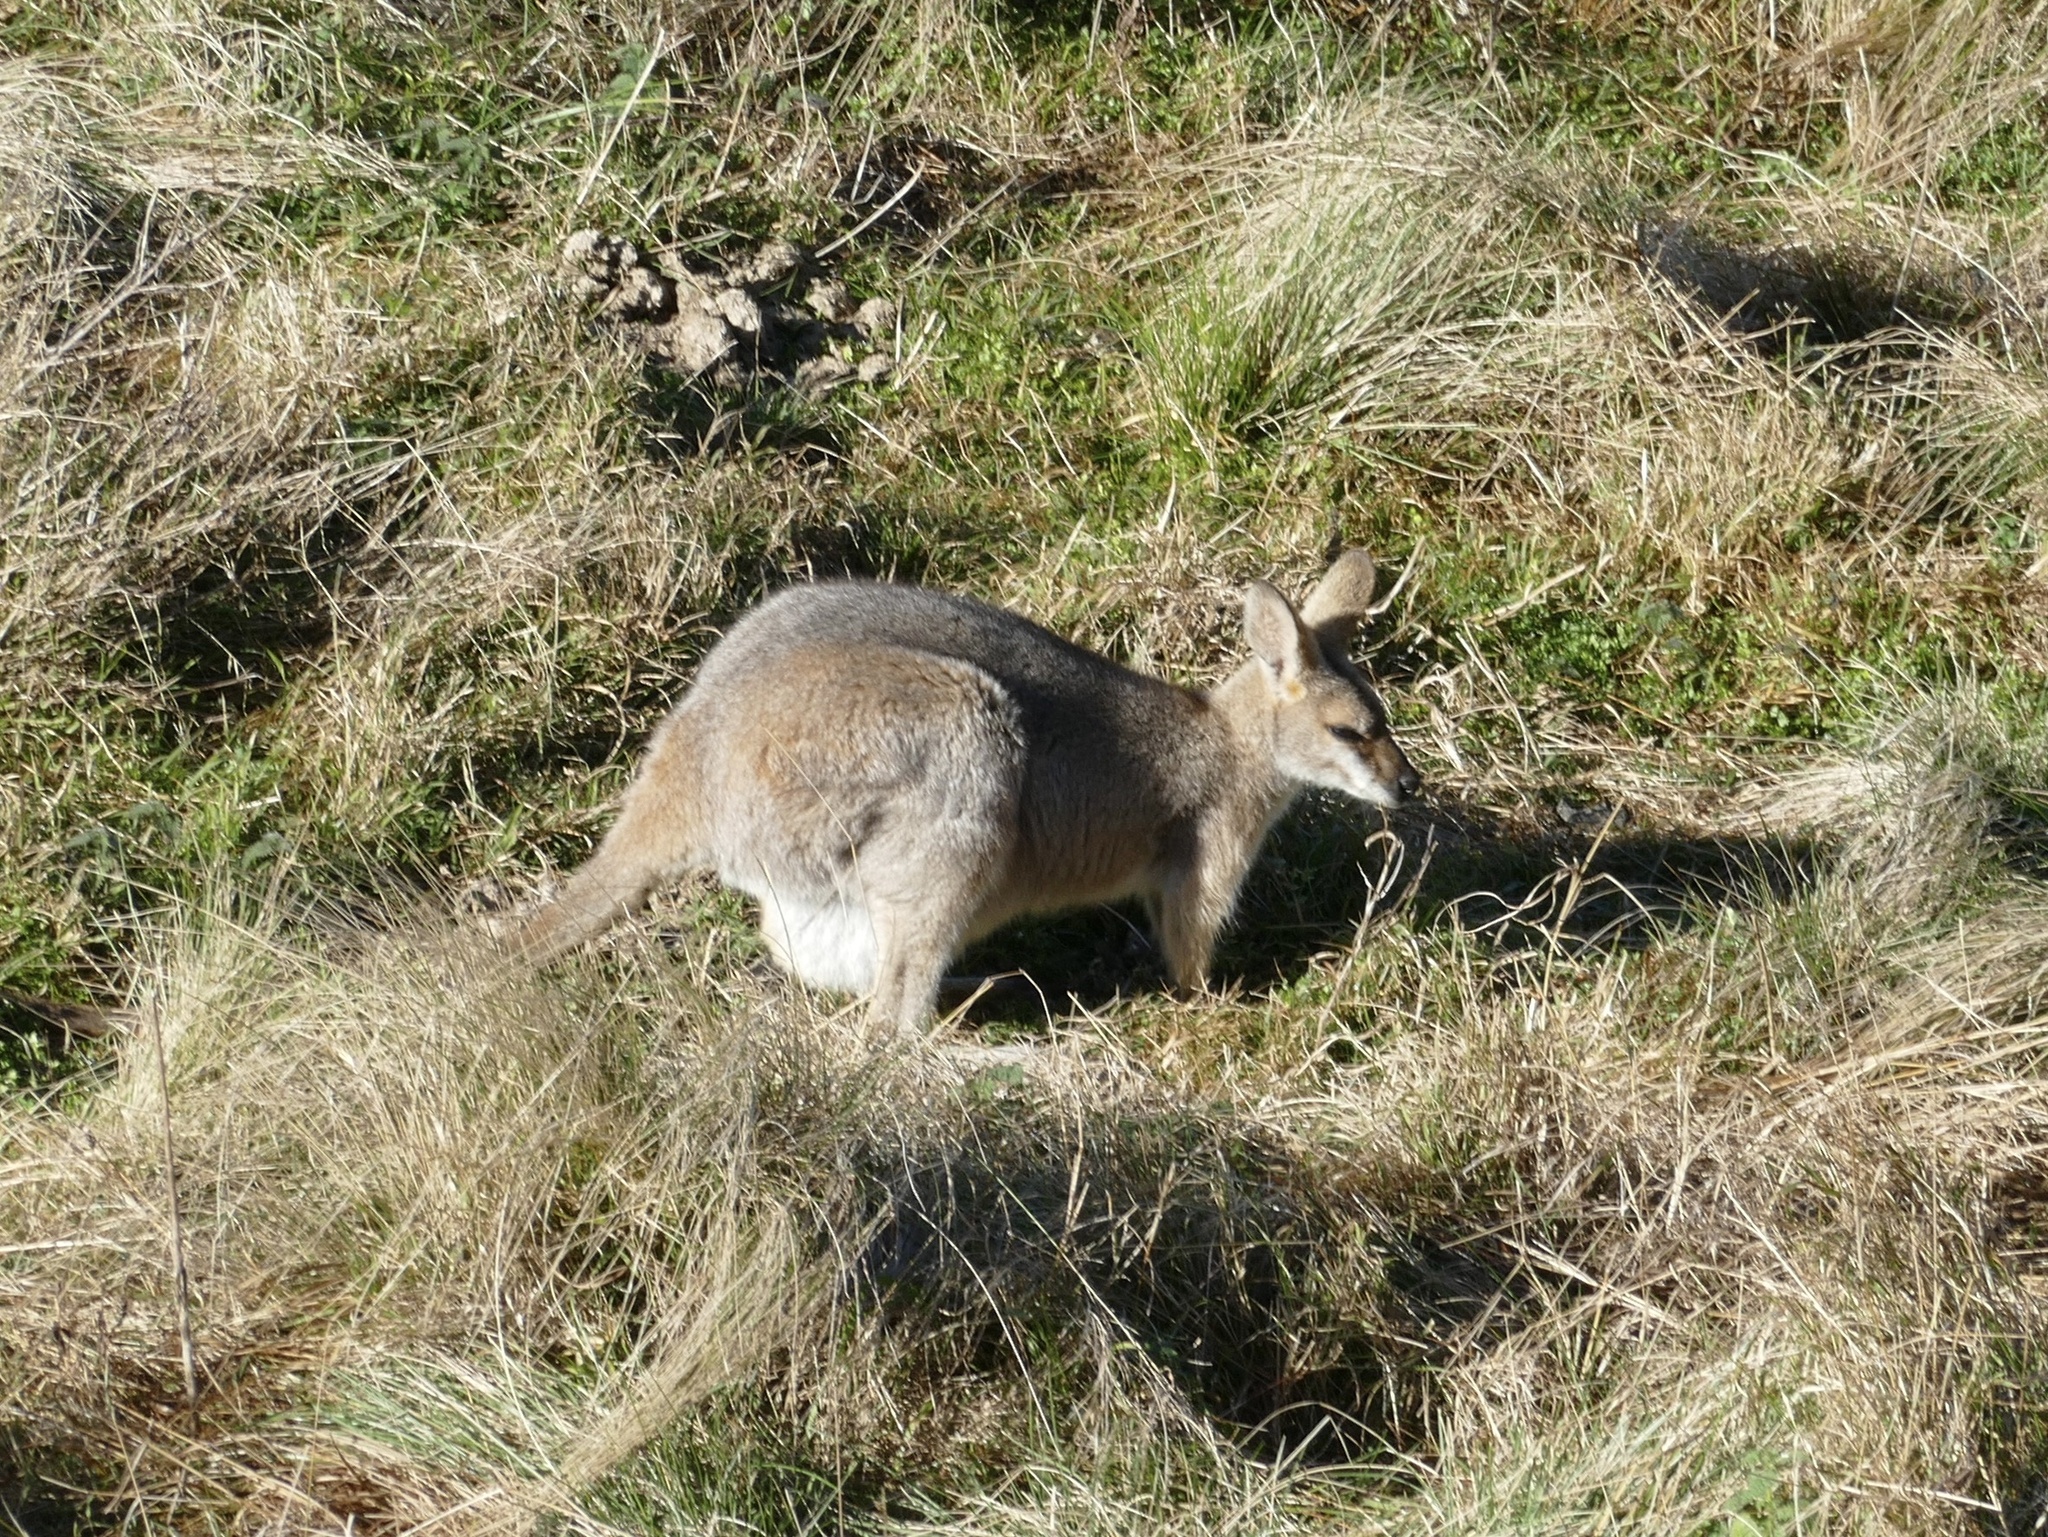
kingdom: Animalia
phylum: Chordata
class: Mammalia
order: Diprotodontia
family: Macropodidae
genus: Notamacropus
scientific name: Notamacropus rufogriseus
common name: Red-necked wallaby
